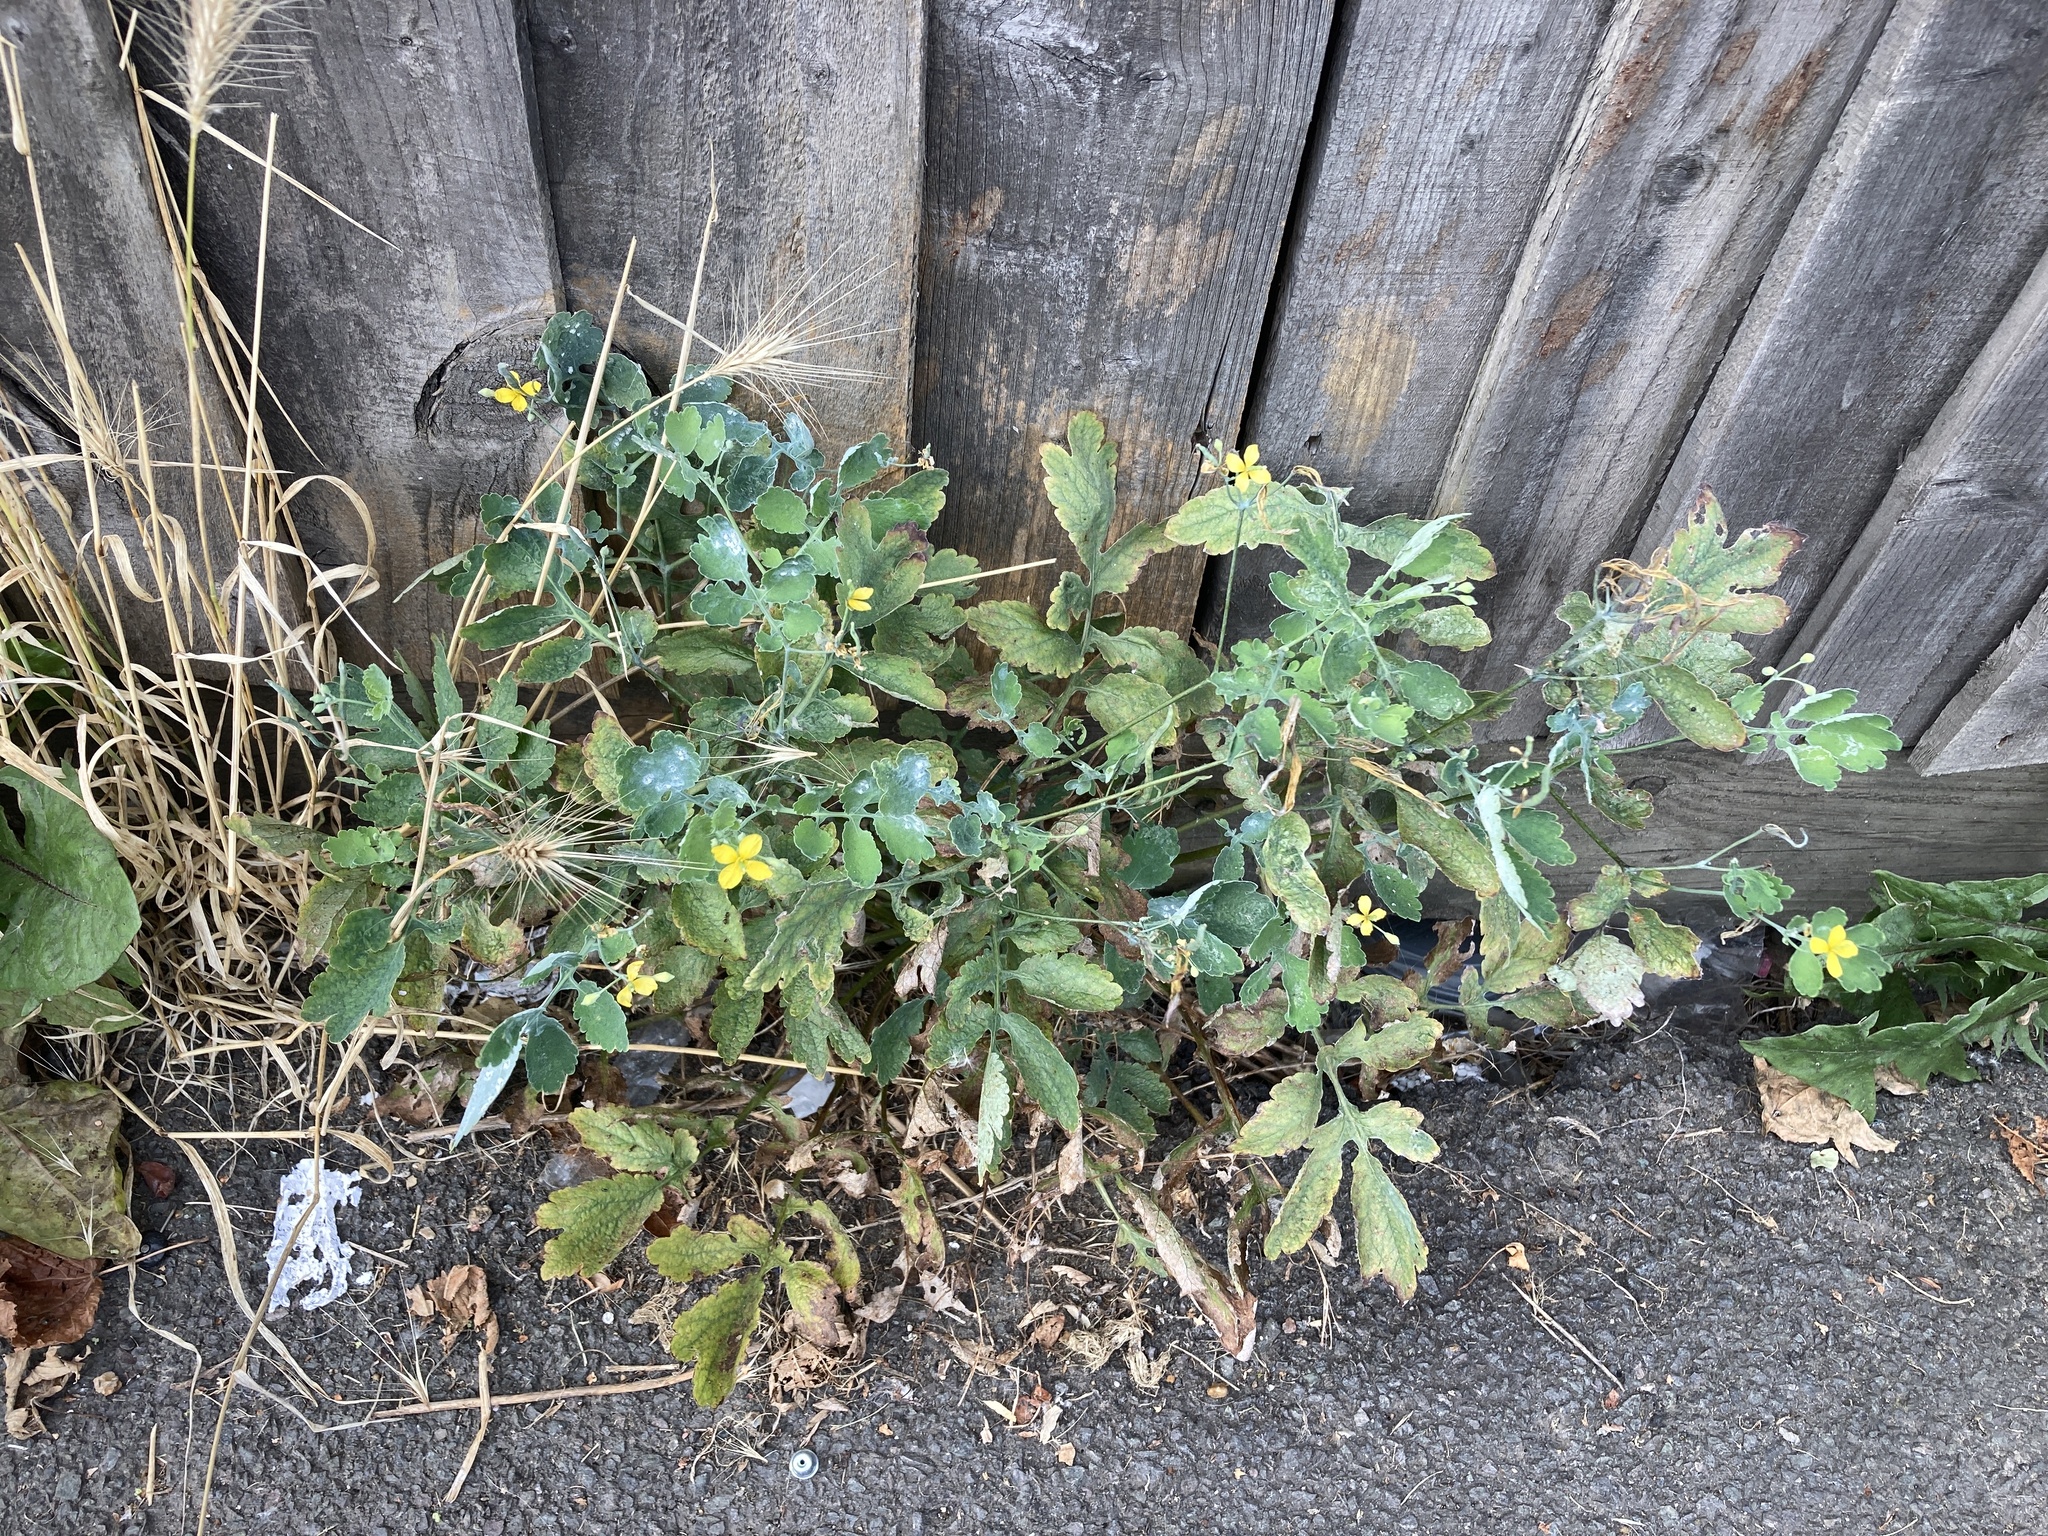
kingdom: Plantae
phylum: Tracheophyta
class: Magnoliopsida
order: Ranunculales
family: Papaveraceae
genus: Chelidonium
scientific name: Chelidonium majus
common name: Greater celandine
